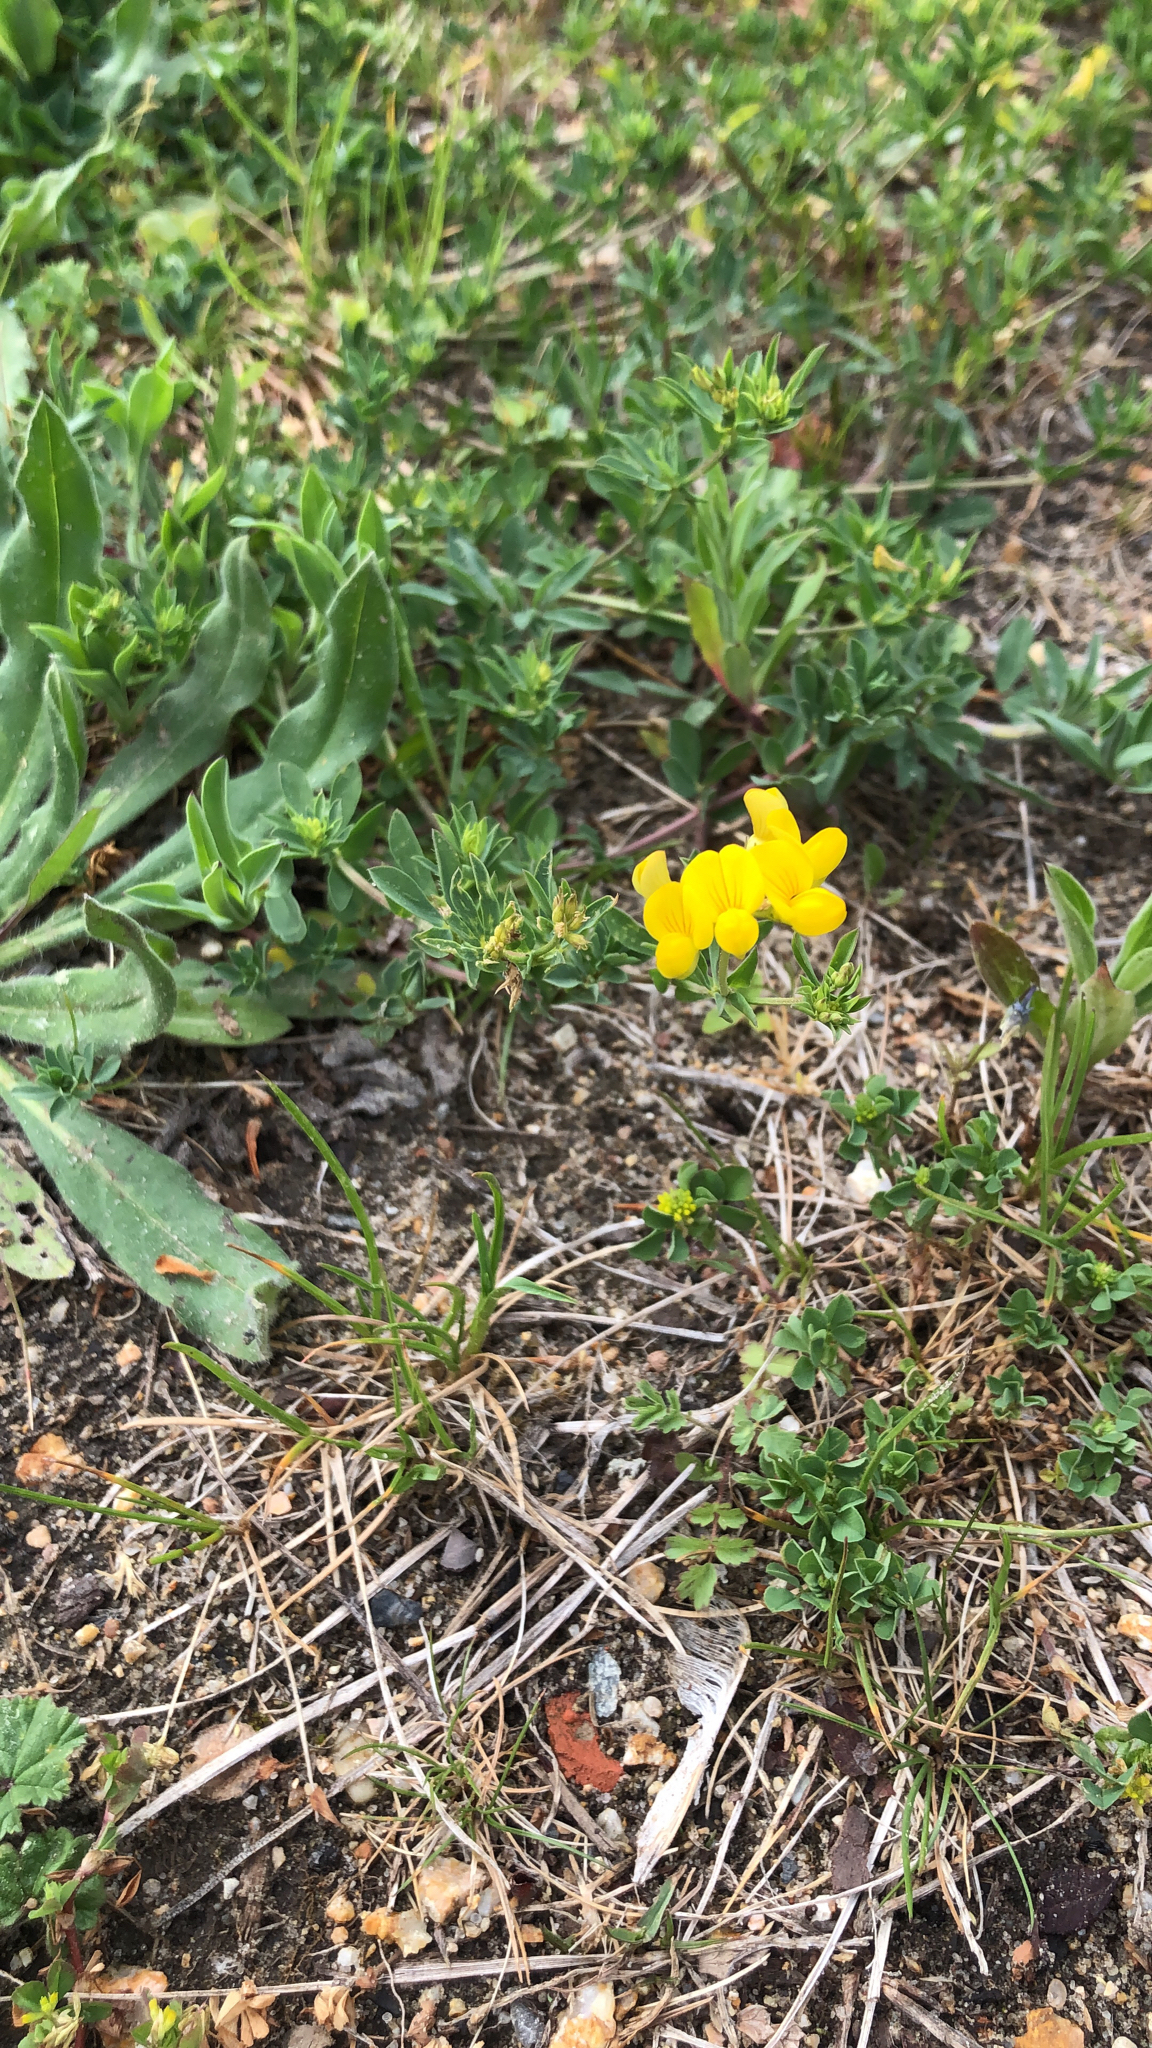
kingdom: Plantae
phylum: Tracheophyta
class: Magnoliopsida
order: Fabales
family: Fabaceae
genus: Lotus
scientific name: Lotus corniculatus
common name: Common bird's-foot-trefoil
